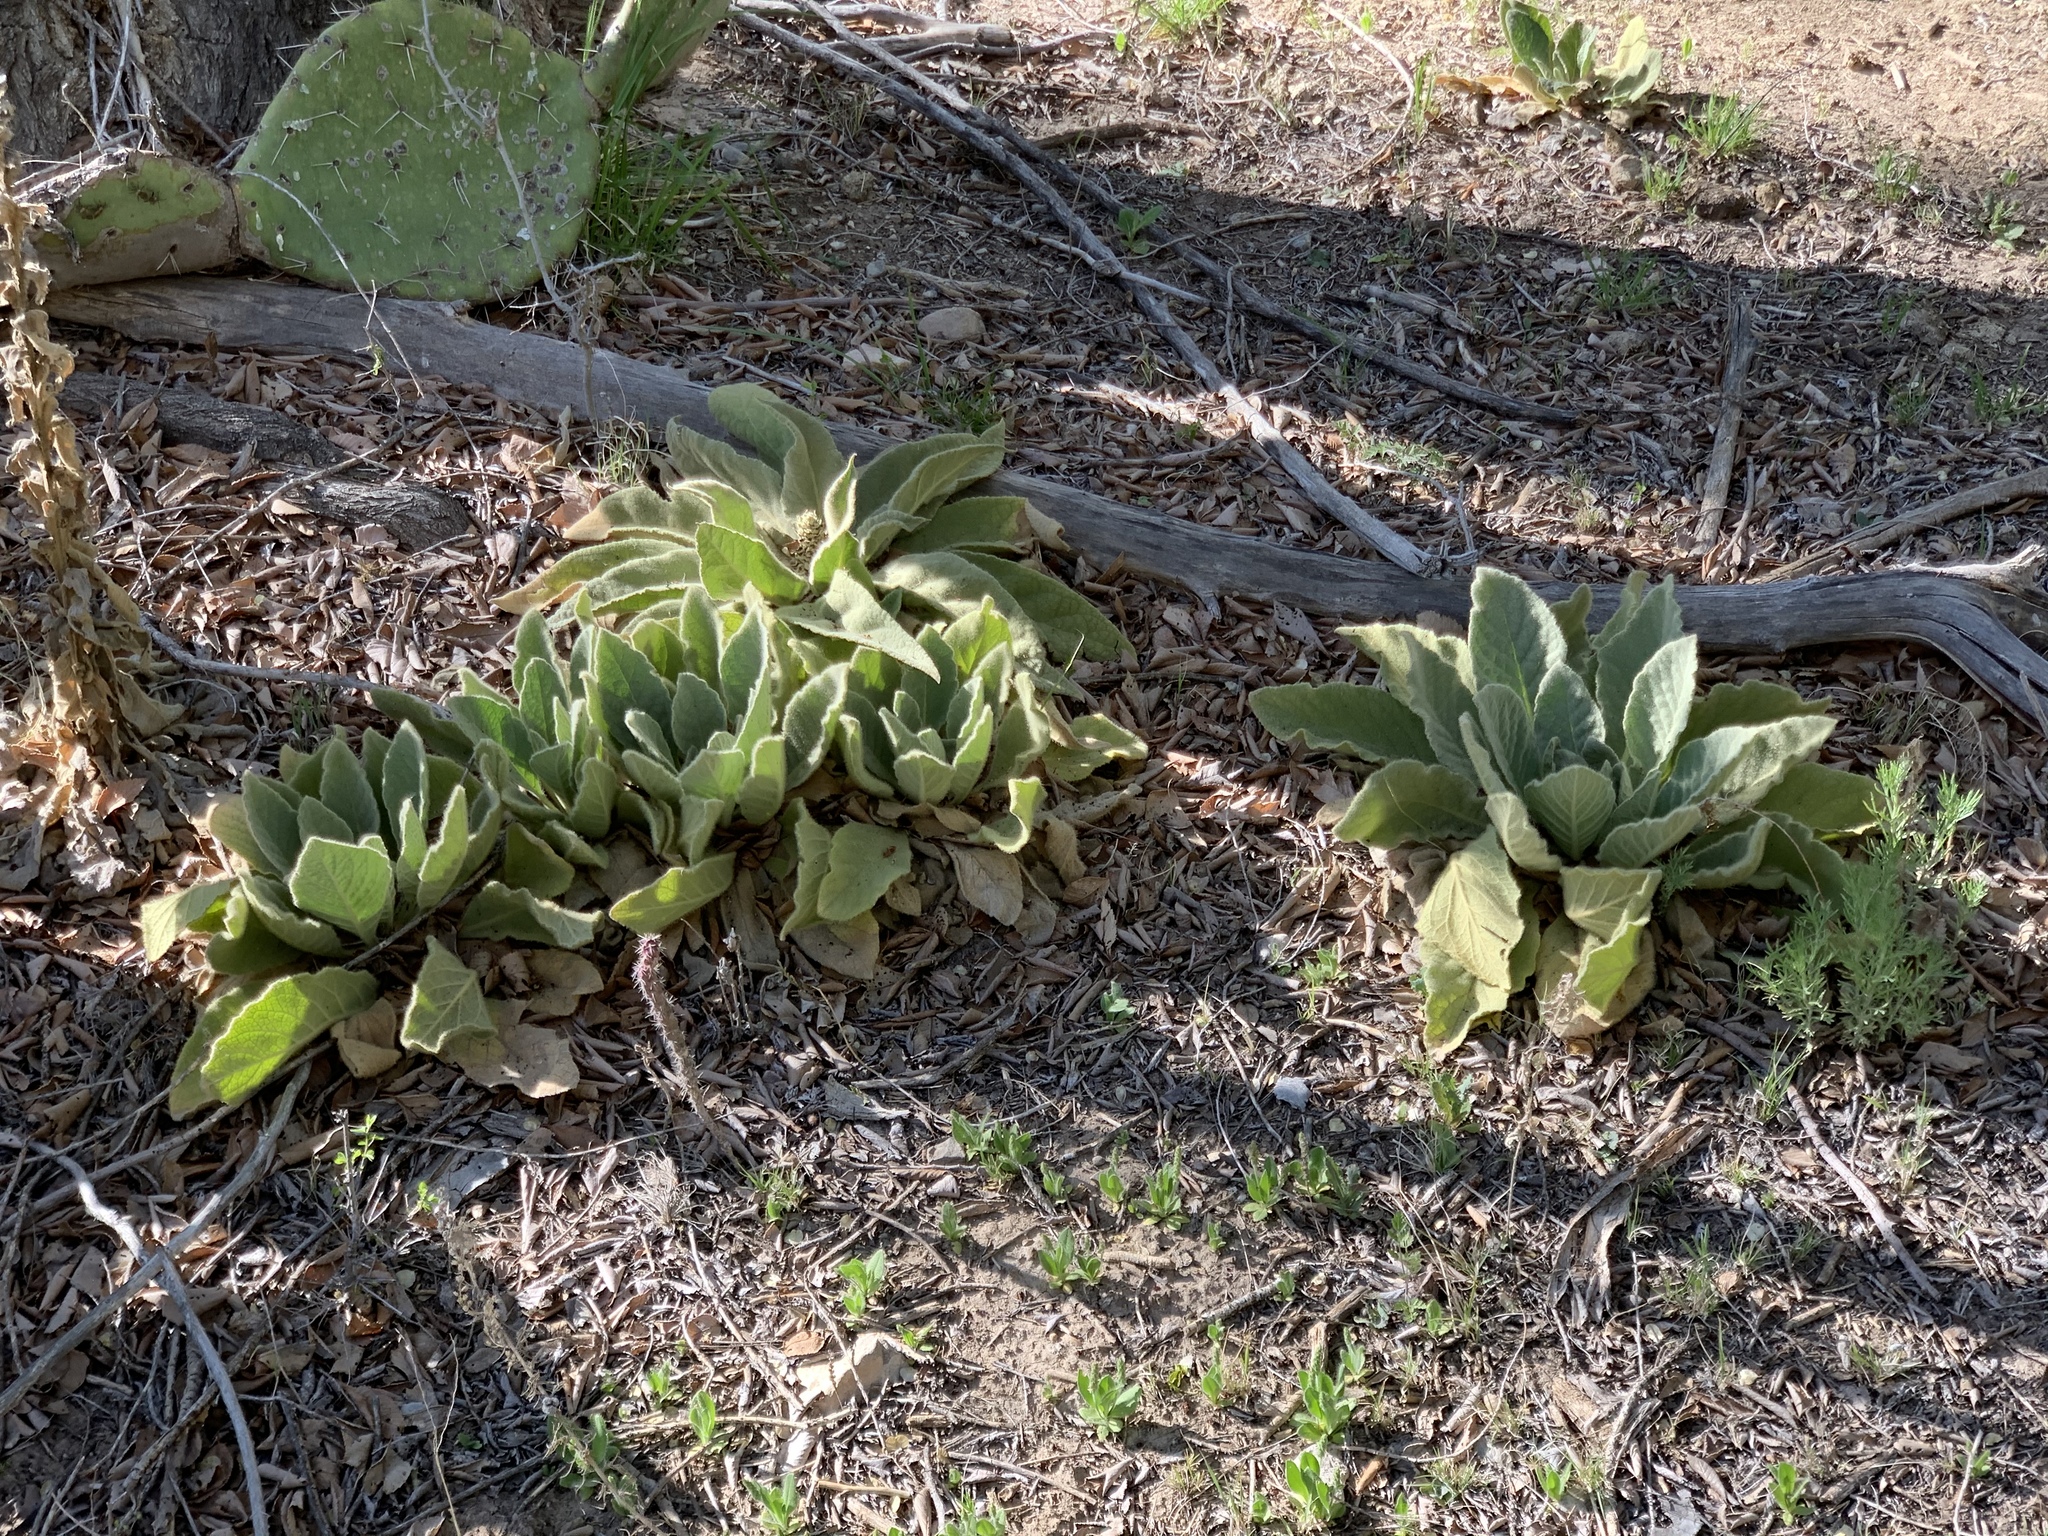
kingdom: Plantae
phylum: Tracheophyta
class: Magnoliopsida
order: Lamiales
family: Scrophulariaceae
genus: Verbascum
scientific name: Verbascum thapsus
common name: Common mullein
